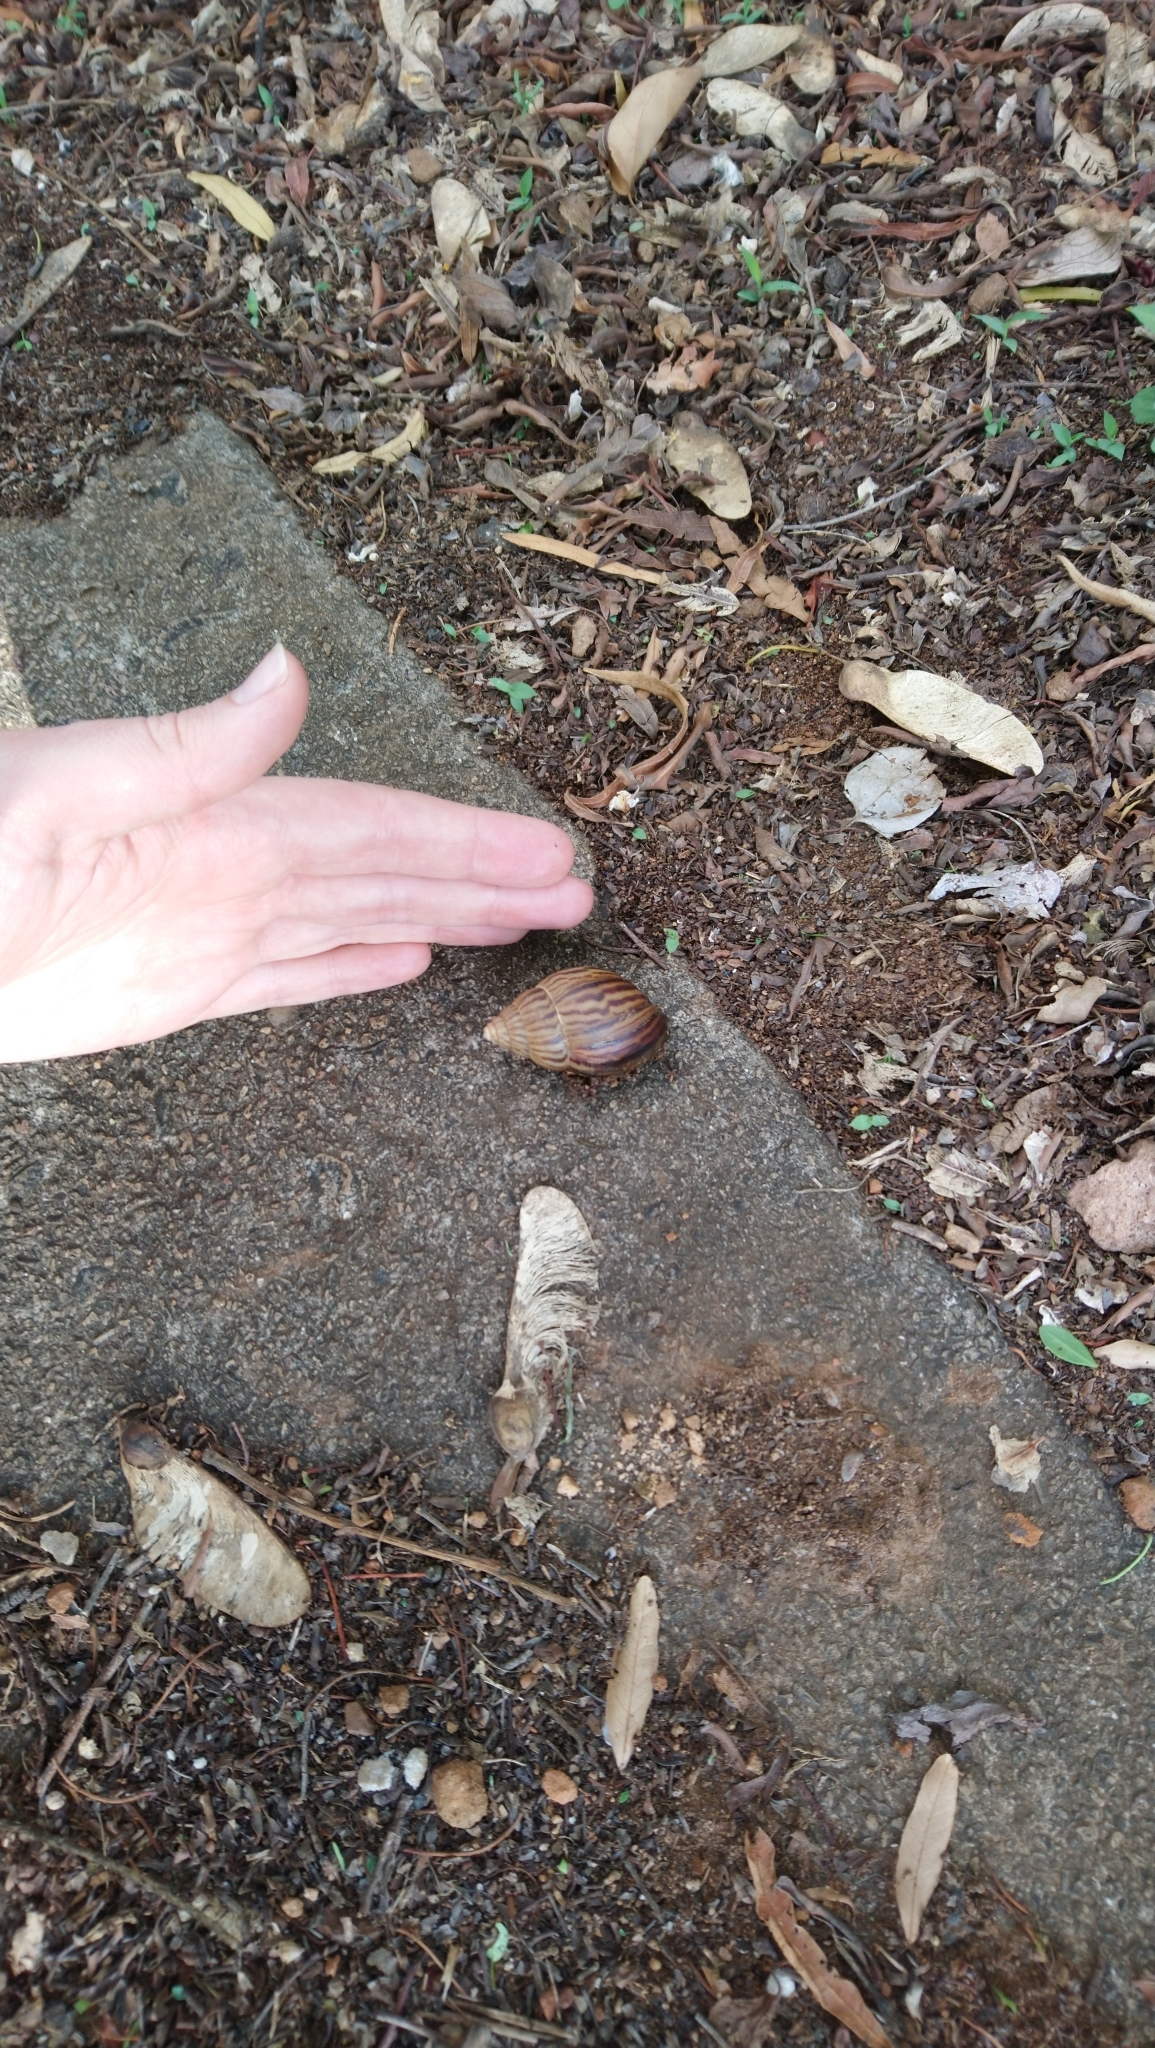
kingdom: Animalia
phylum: Mollusca
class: Gastropoda
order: Stylommatophora
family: Achatinidae
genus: Lissachatina
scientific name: Lissachatina immaculata
